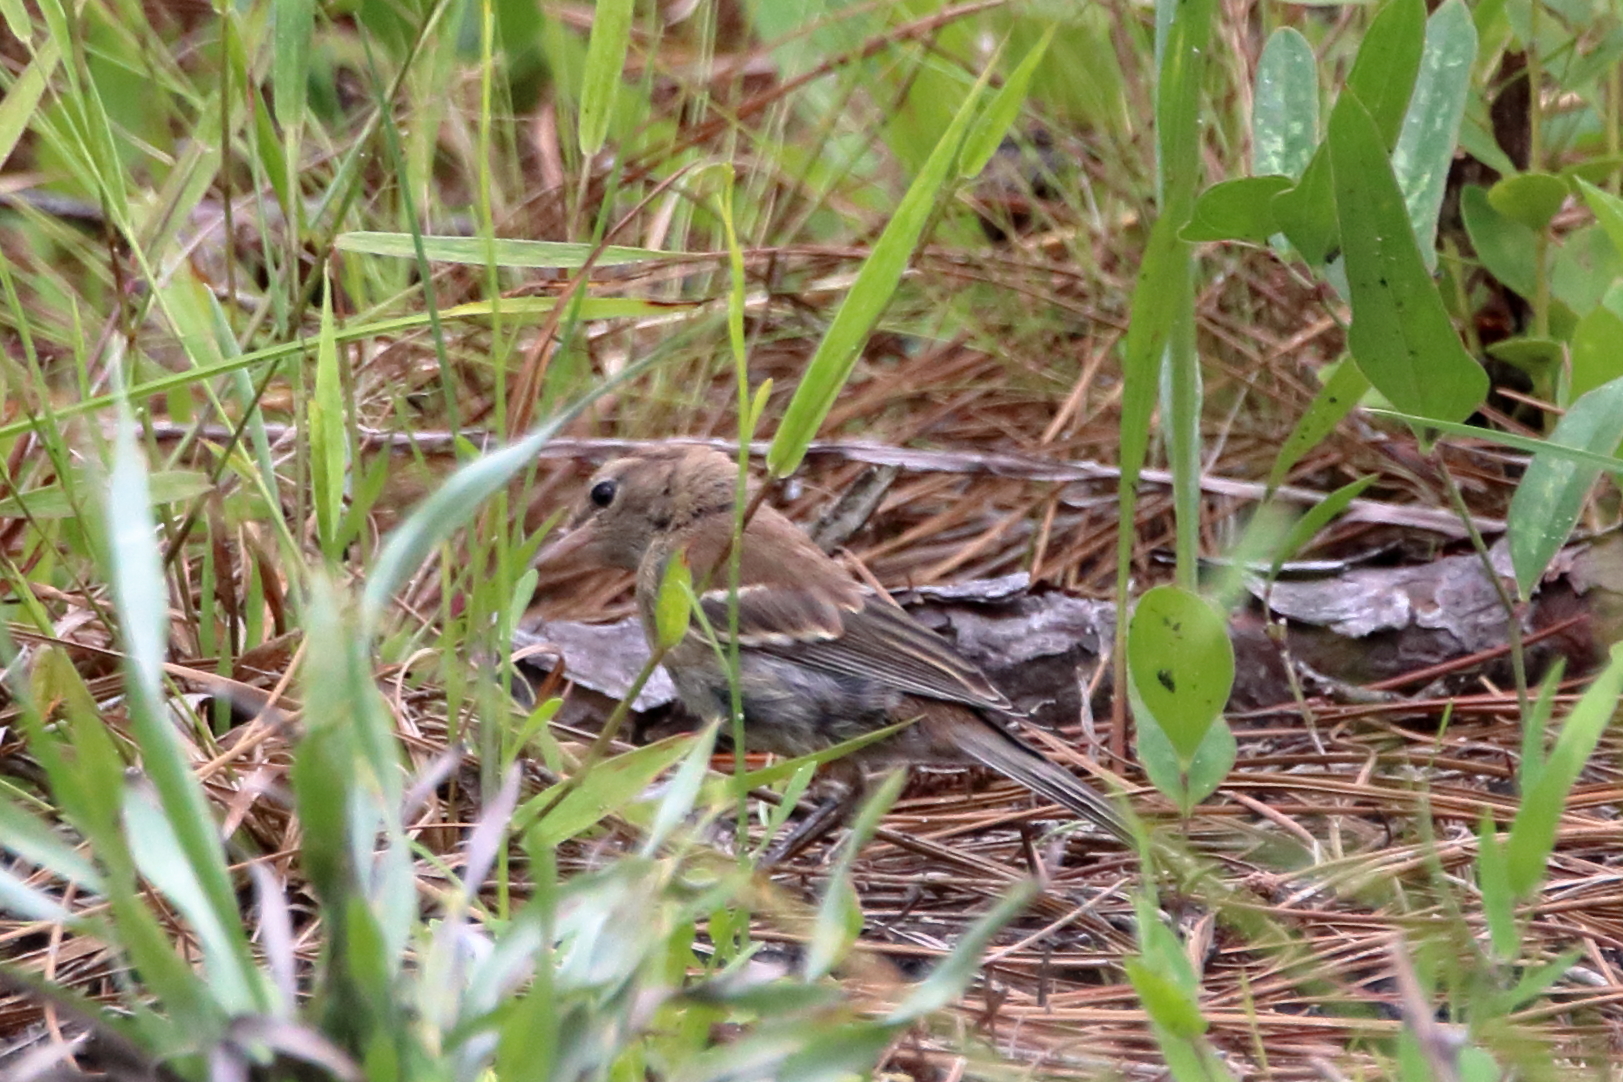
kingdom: Animalia
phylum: Chordata
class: Aves
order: Passeriformes
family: Parulidae
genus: Setophaga
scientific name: Setophaga pinus
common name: Pine warbler
